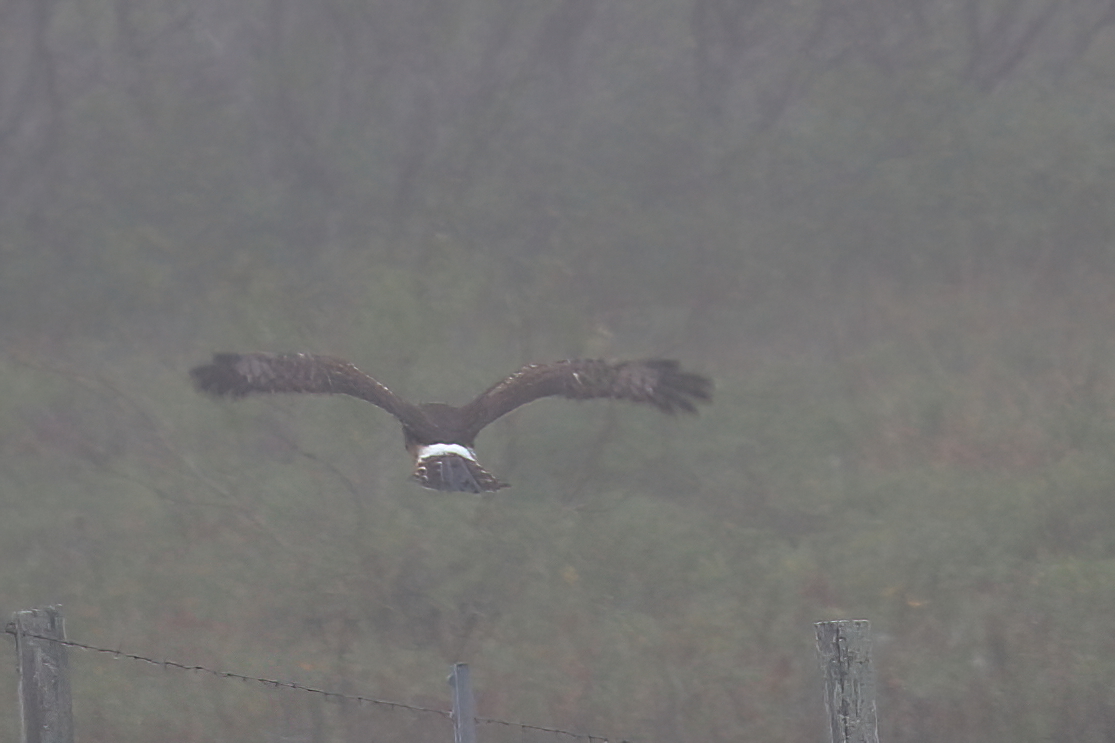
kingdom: Animalia
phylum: Chordata
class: Aves
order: Accipitriformes
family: Accipitridae
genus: Circus
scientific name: Circus cyaneus
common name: Hen harrier
